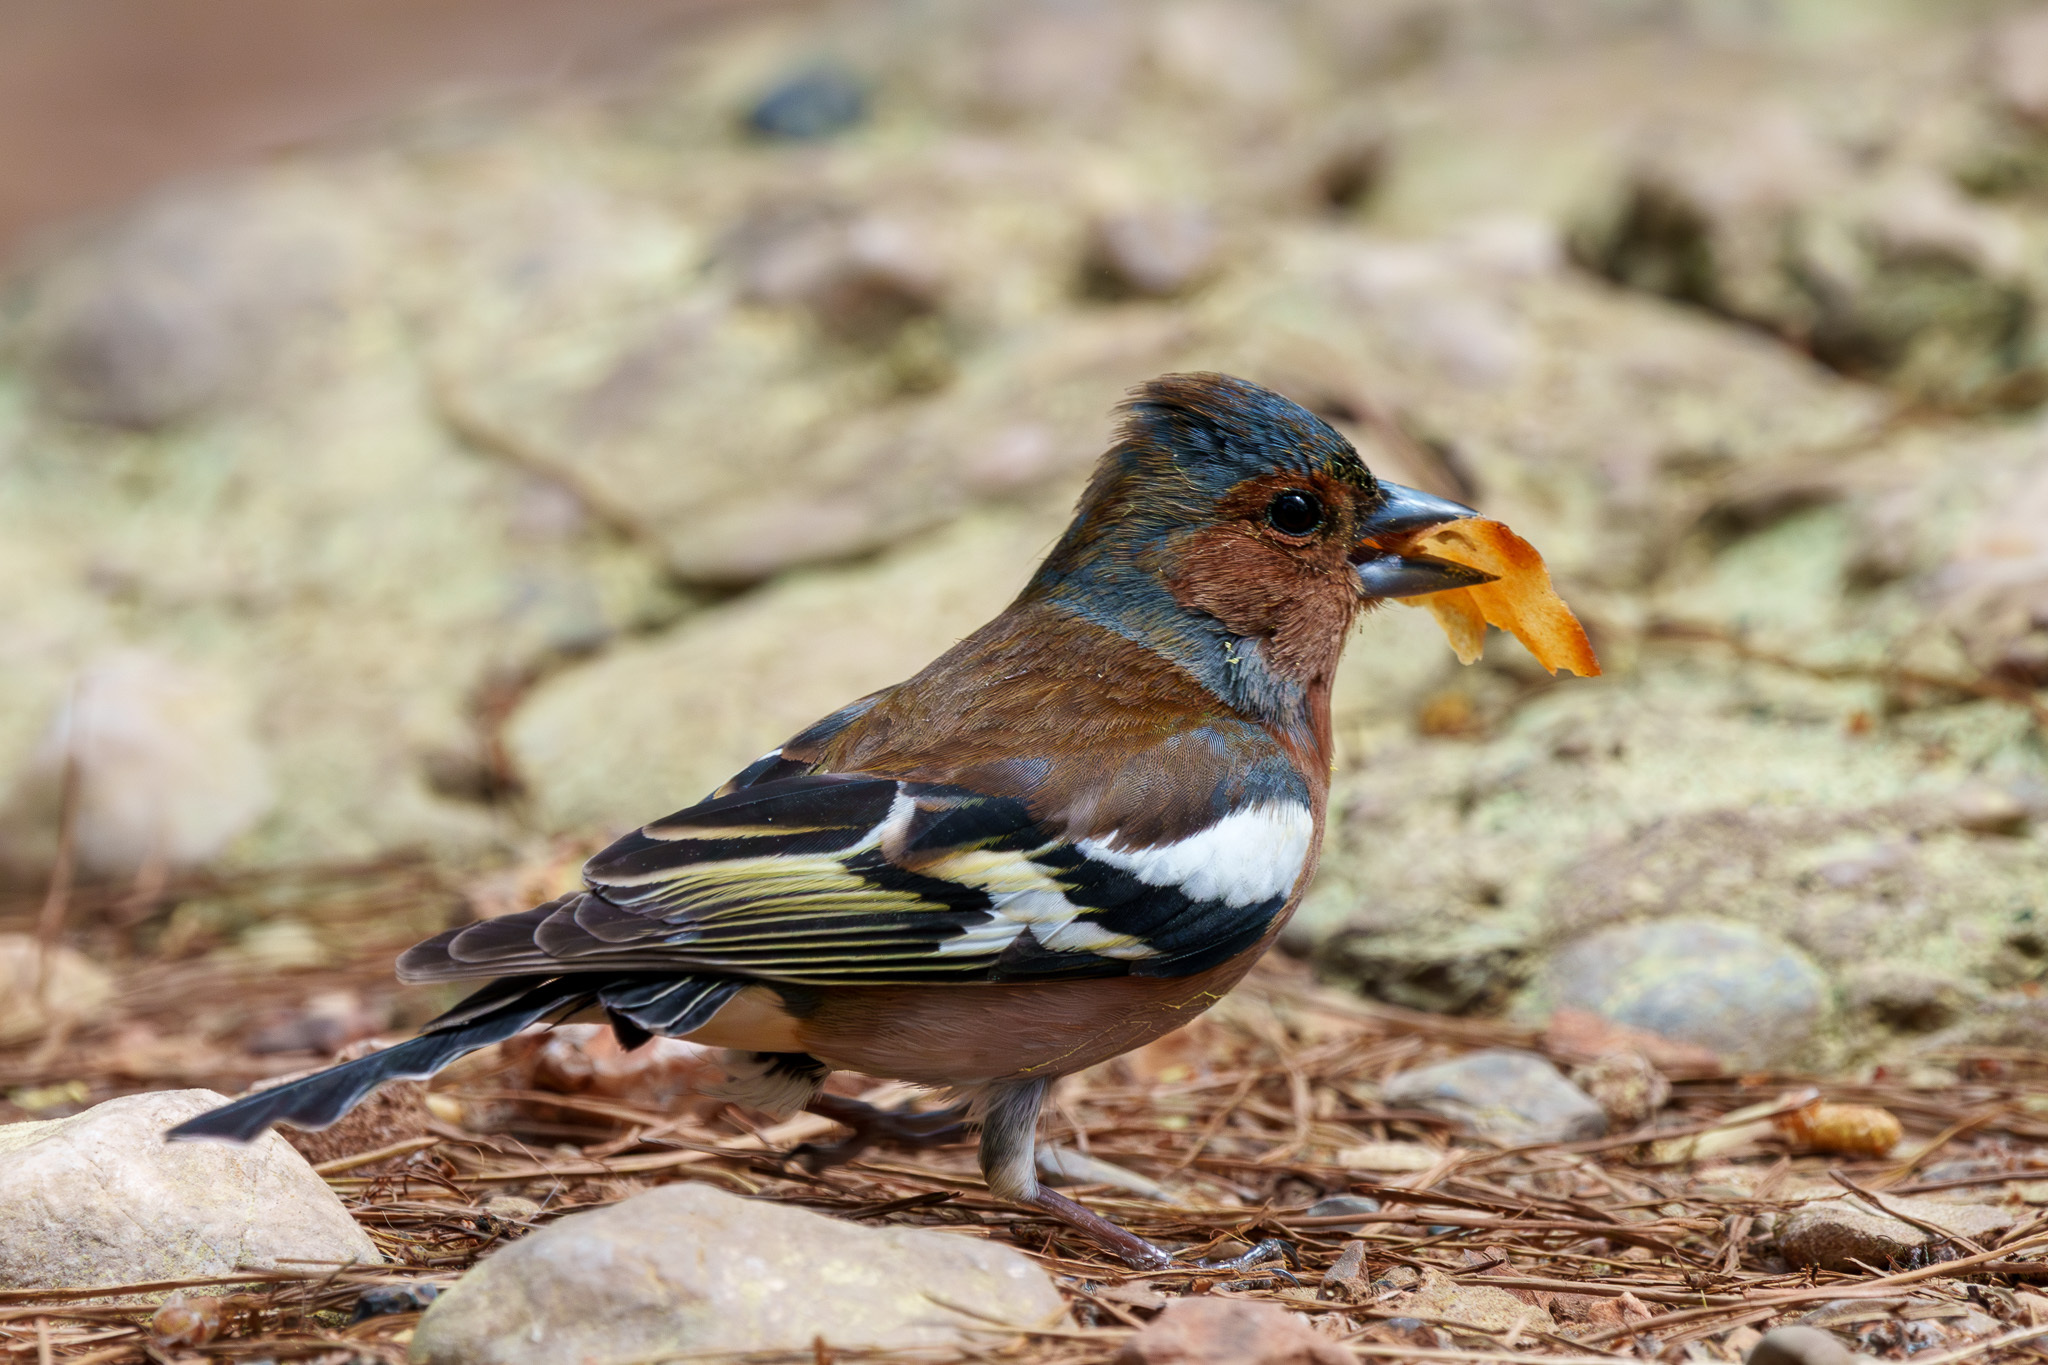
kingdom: Animalia
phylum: Chordata
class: Aves
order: Passeriformes
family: Fringillidae
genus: Fringilla
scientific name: Fringilla coelebs
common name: Common chaffinch
